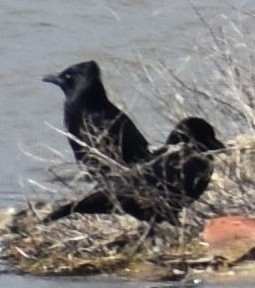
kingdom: Animalia
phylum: Chordata
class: Aves
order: Passeriformes
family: Corvidae
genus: Corvus
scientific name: Corvus corone
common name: Carrion crow
